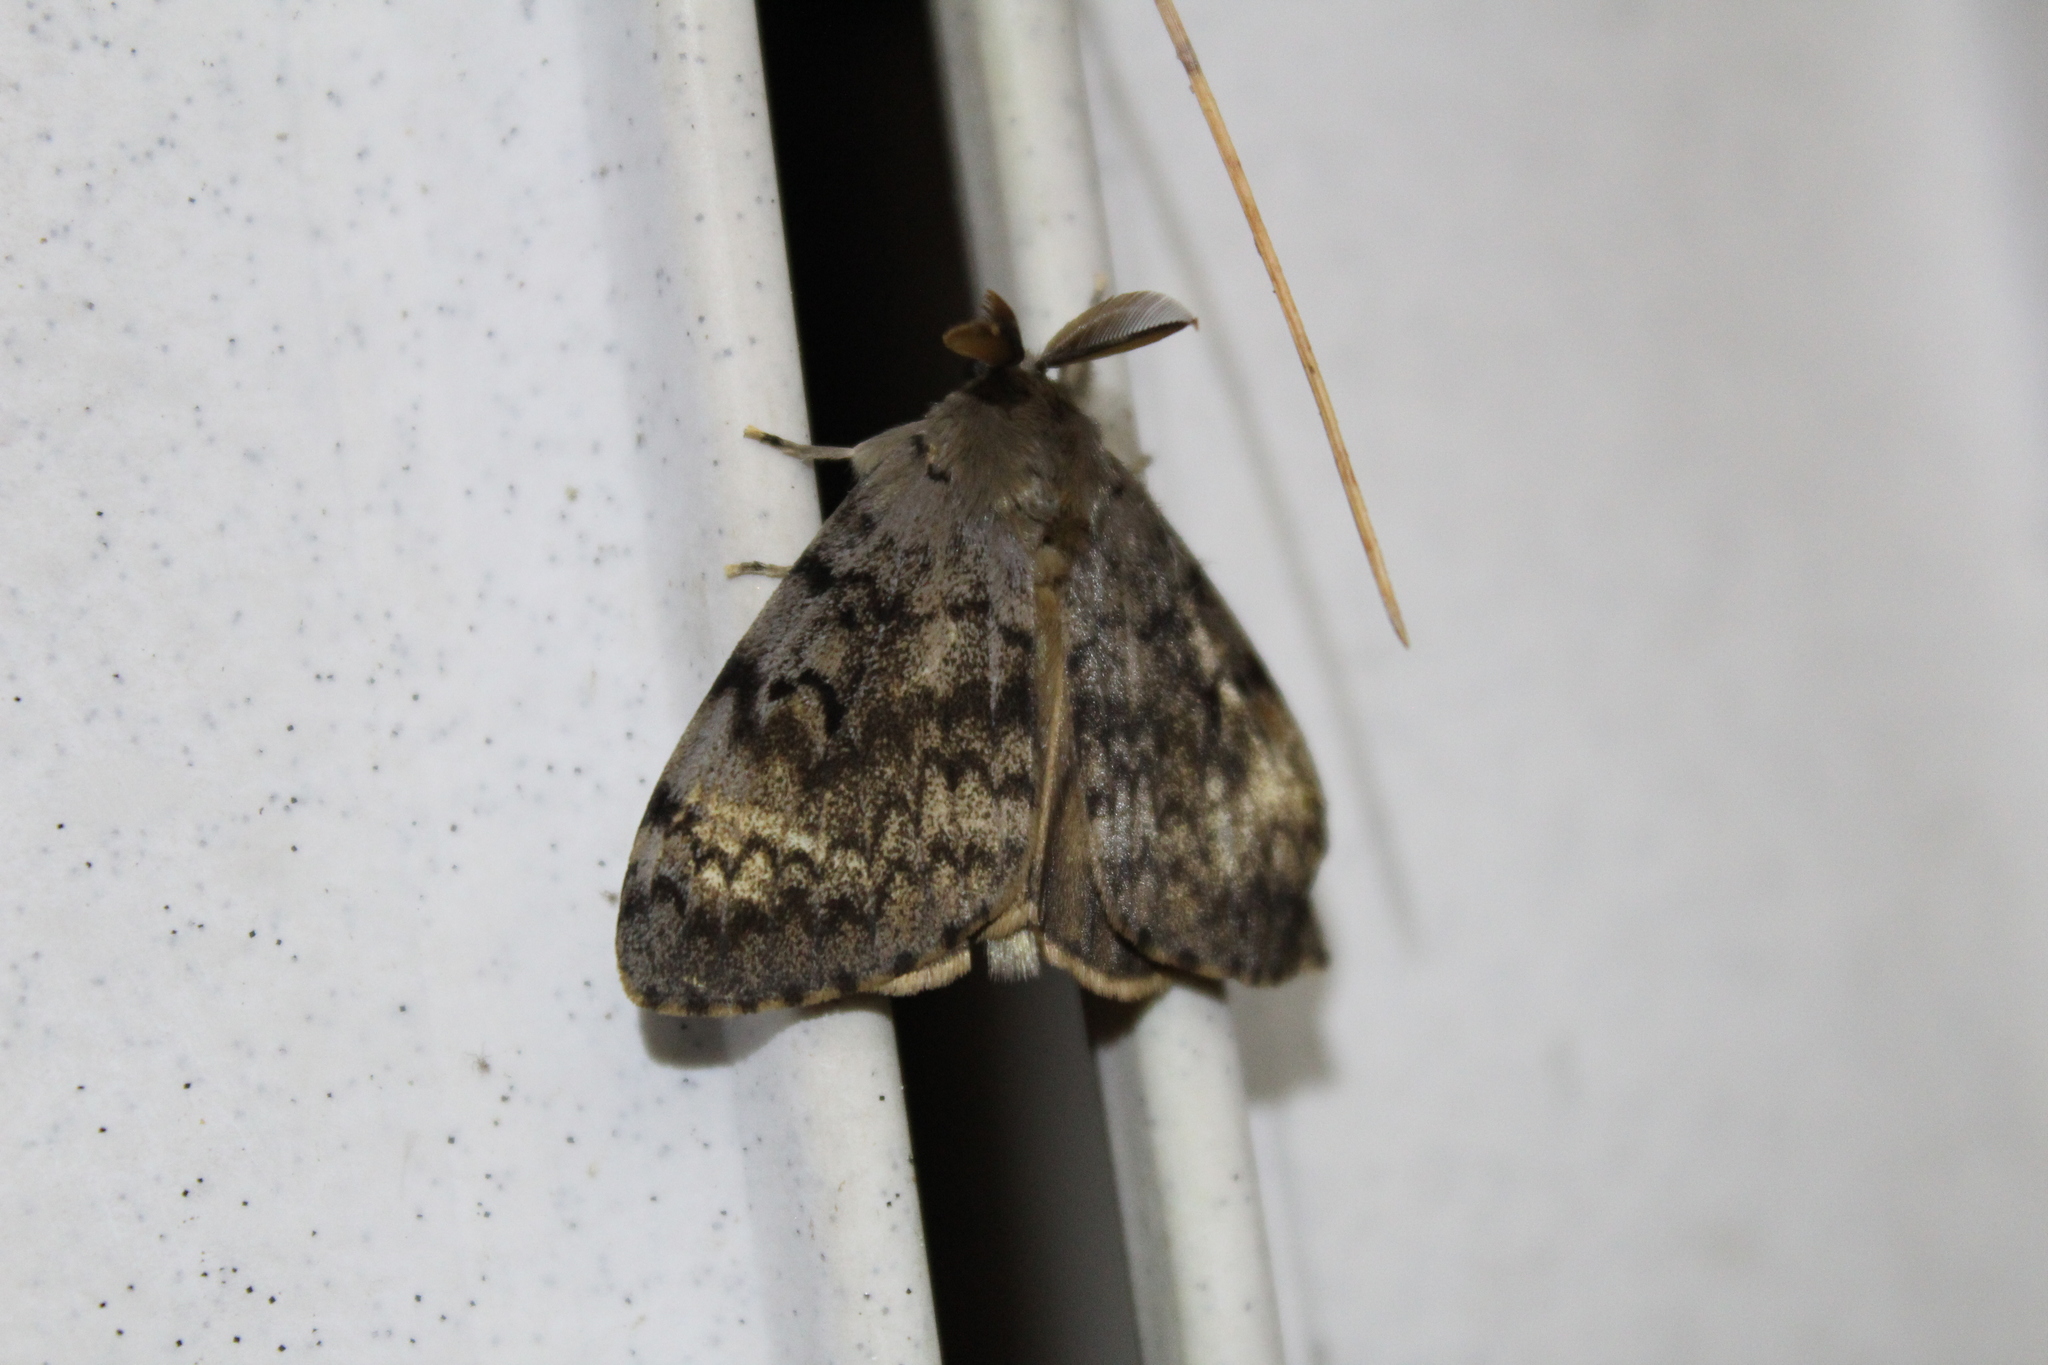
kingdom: Animalia
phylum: Arthropoda
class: Insecta
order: Lepidoptera
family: Erebidae
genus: Lymantria
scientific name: Lymantria dispar
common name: Gypsy moth
